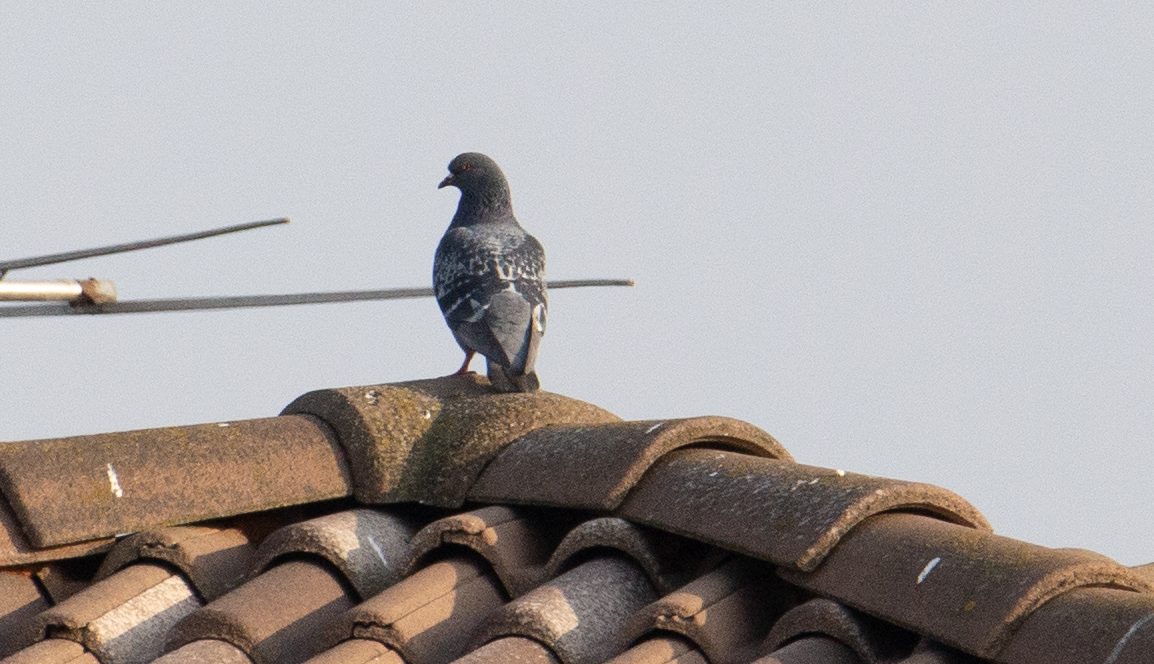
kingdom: Animalia
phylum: Chordata
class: Aves
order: Columbiformes
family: Columbidae
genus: Columba
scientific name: Columba livia
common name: Rock pigeon
